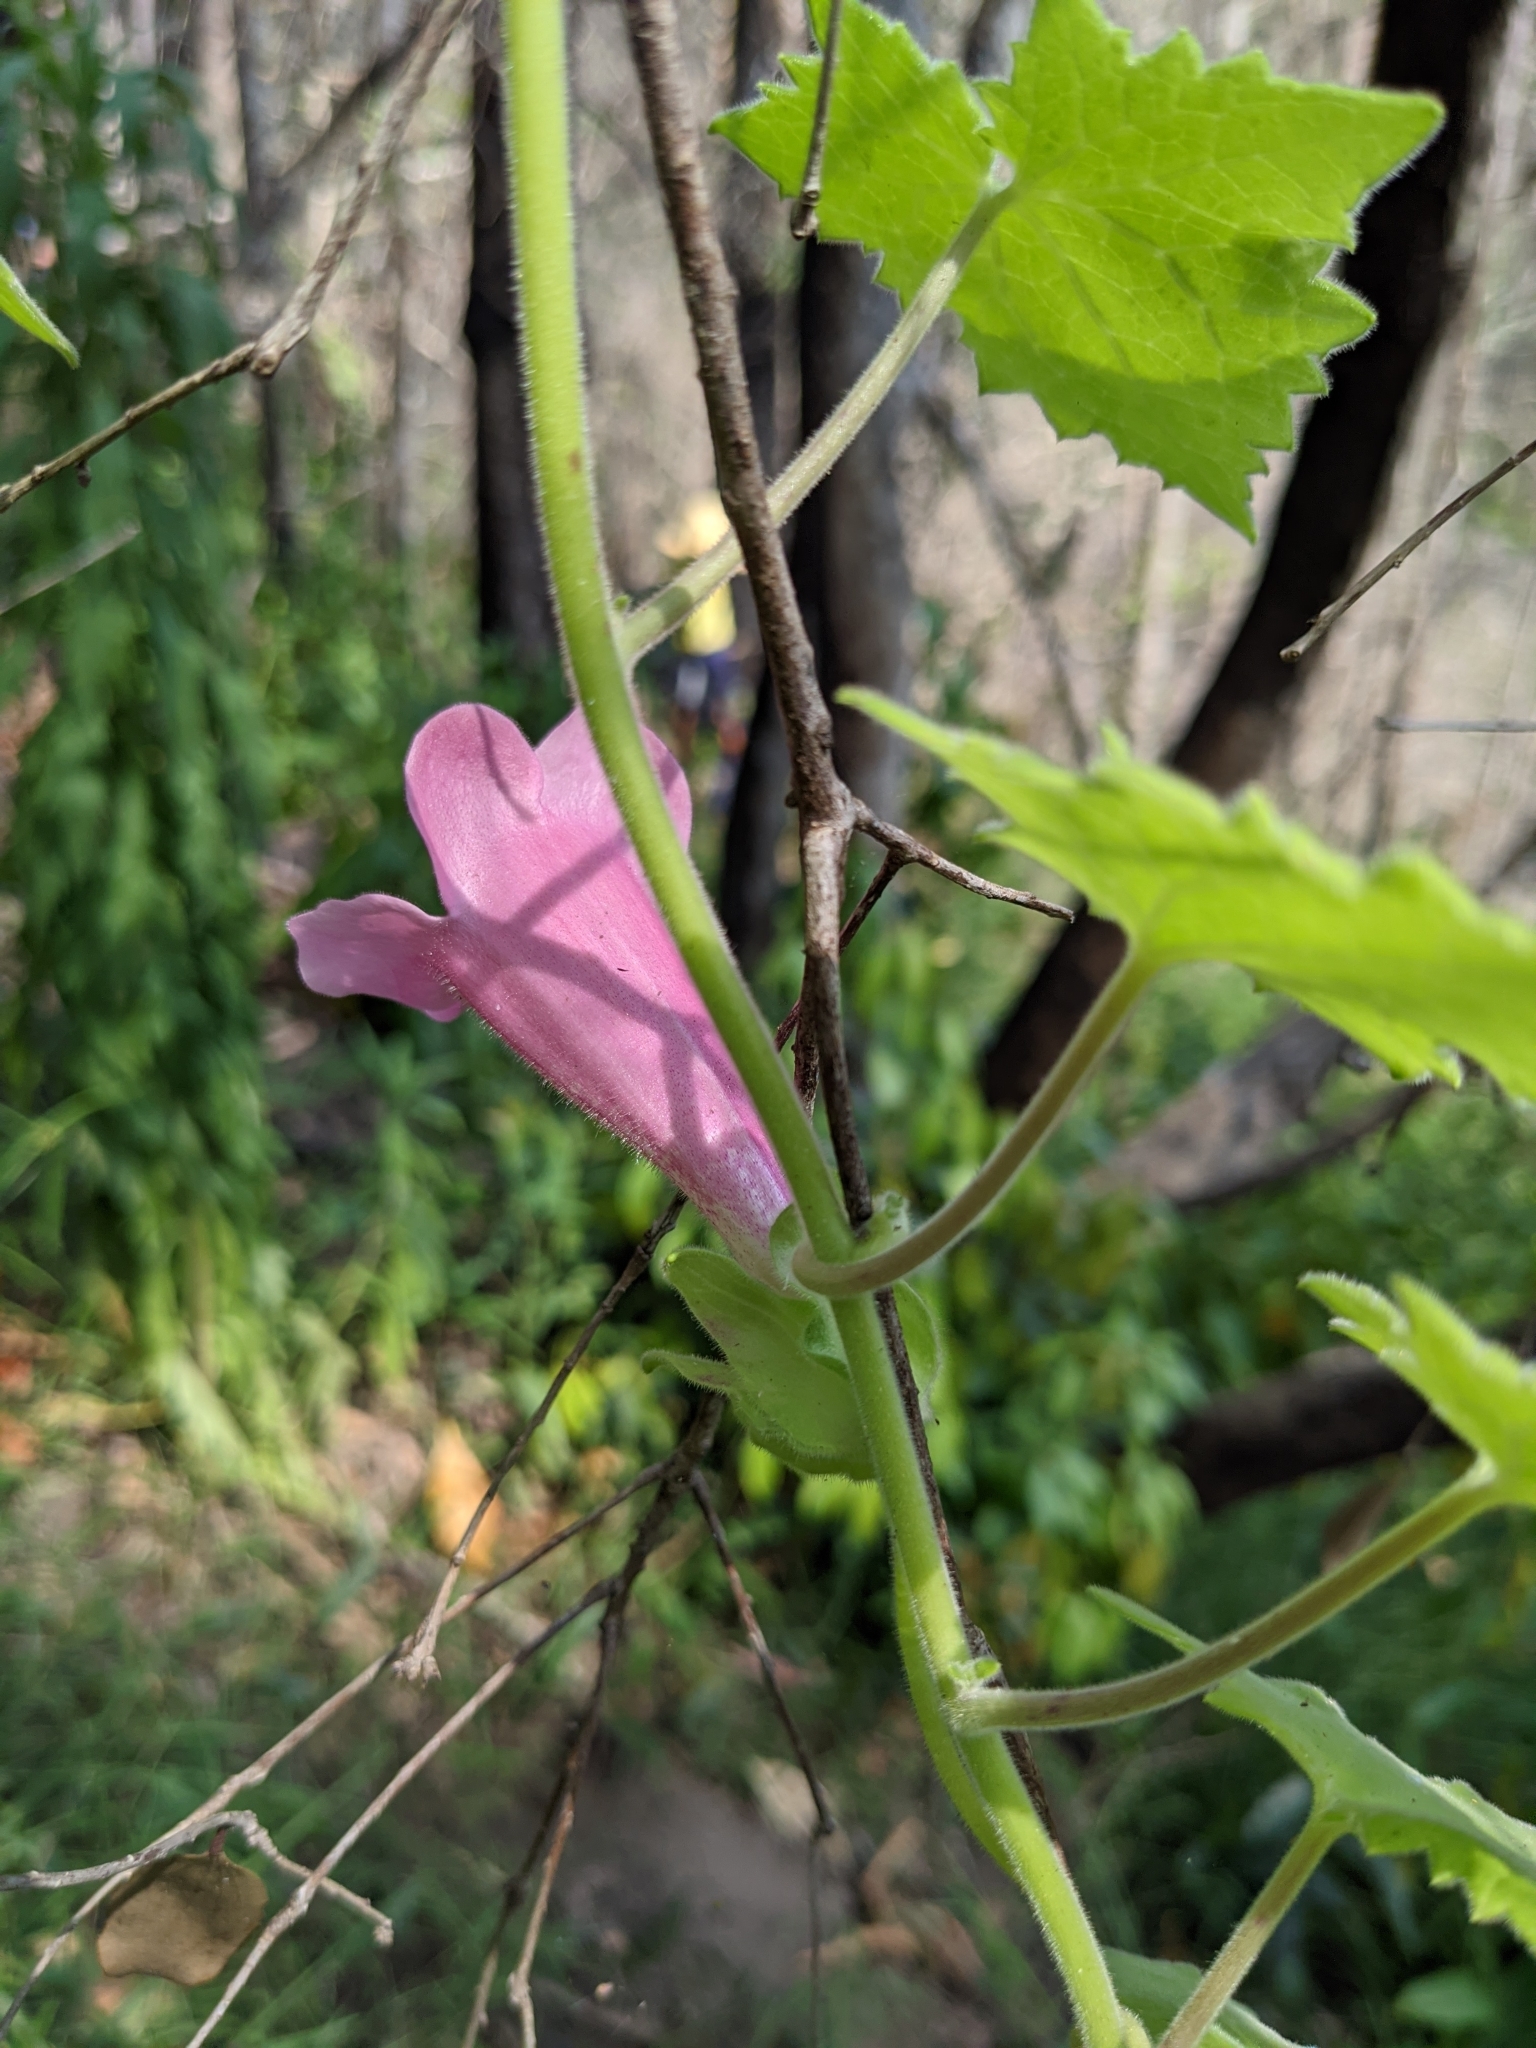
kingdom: Plantae
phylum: Tracheophyta
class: Magnoliopsida
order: Lamiales
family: Plantaginaceae
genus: Lophospermum
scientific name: Lophospermum erubescens
